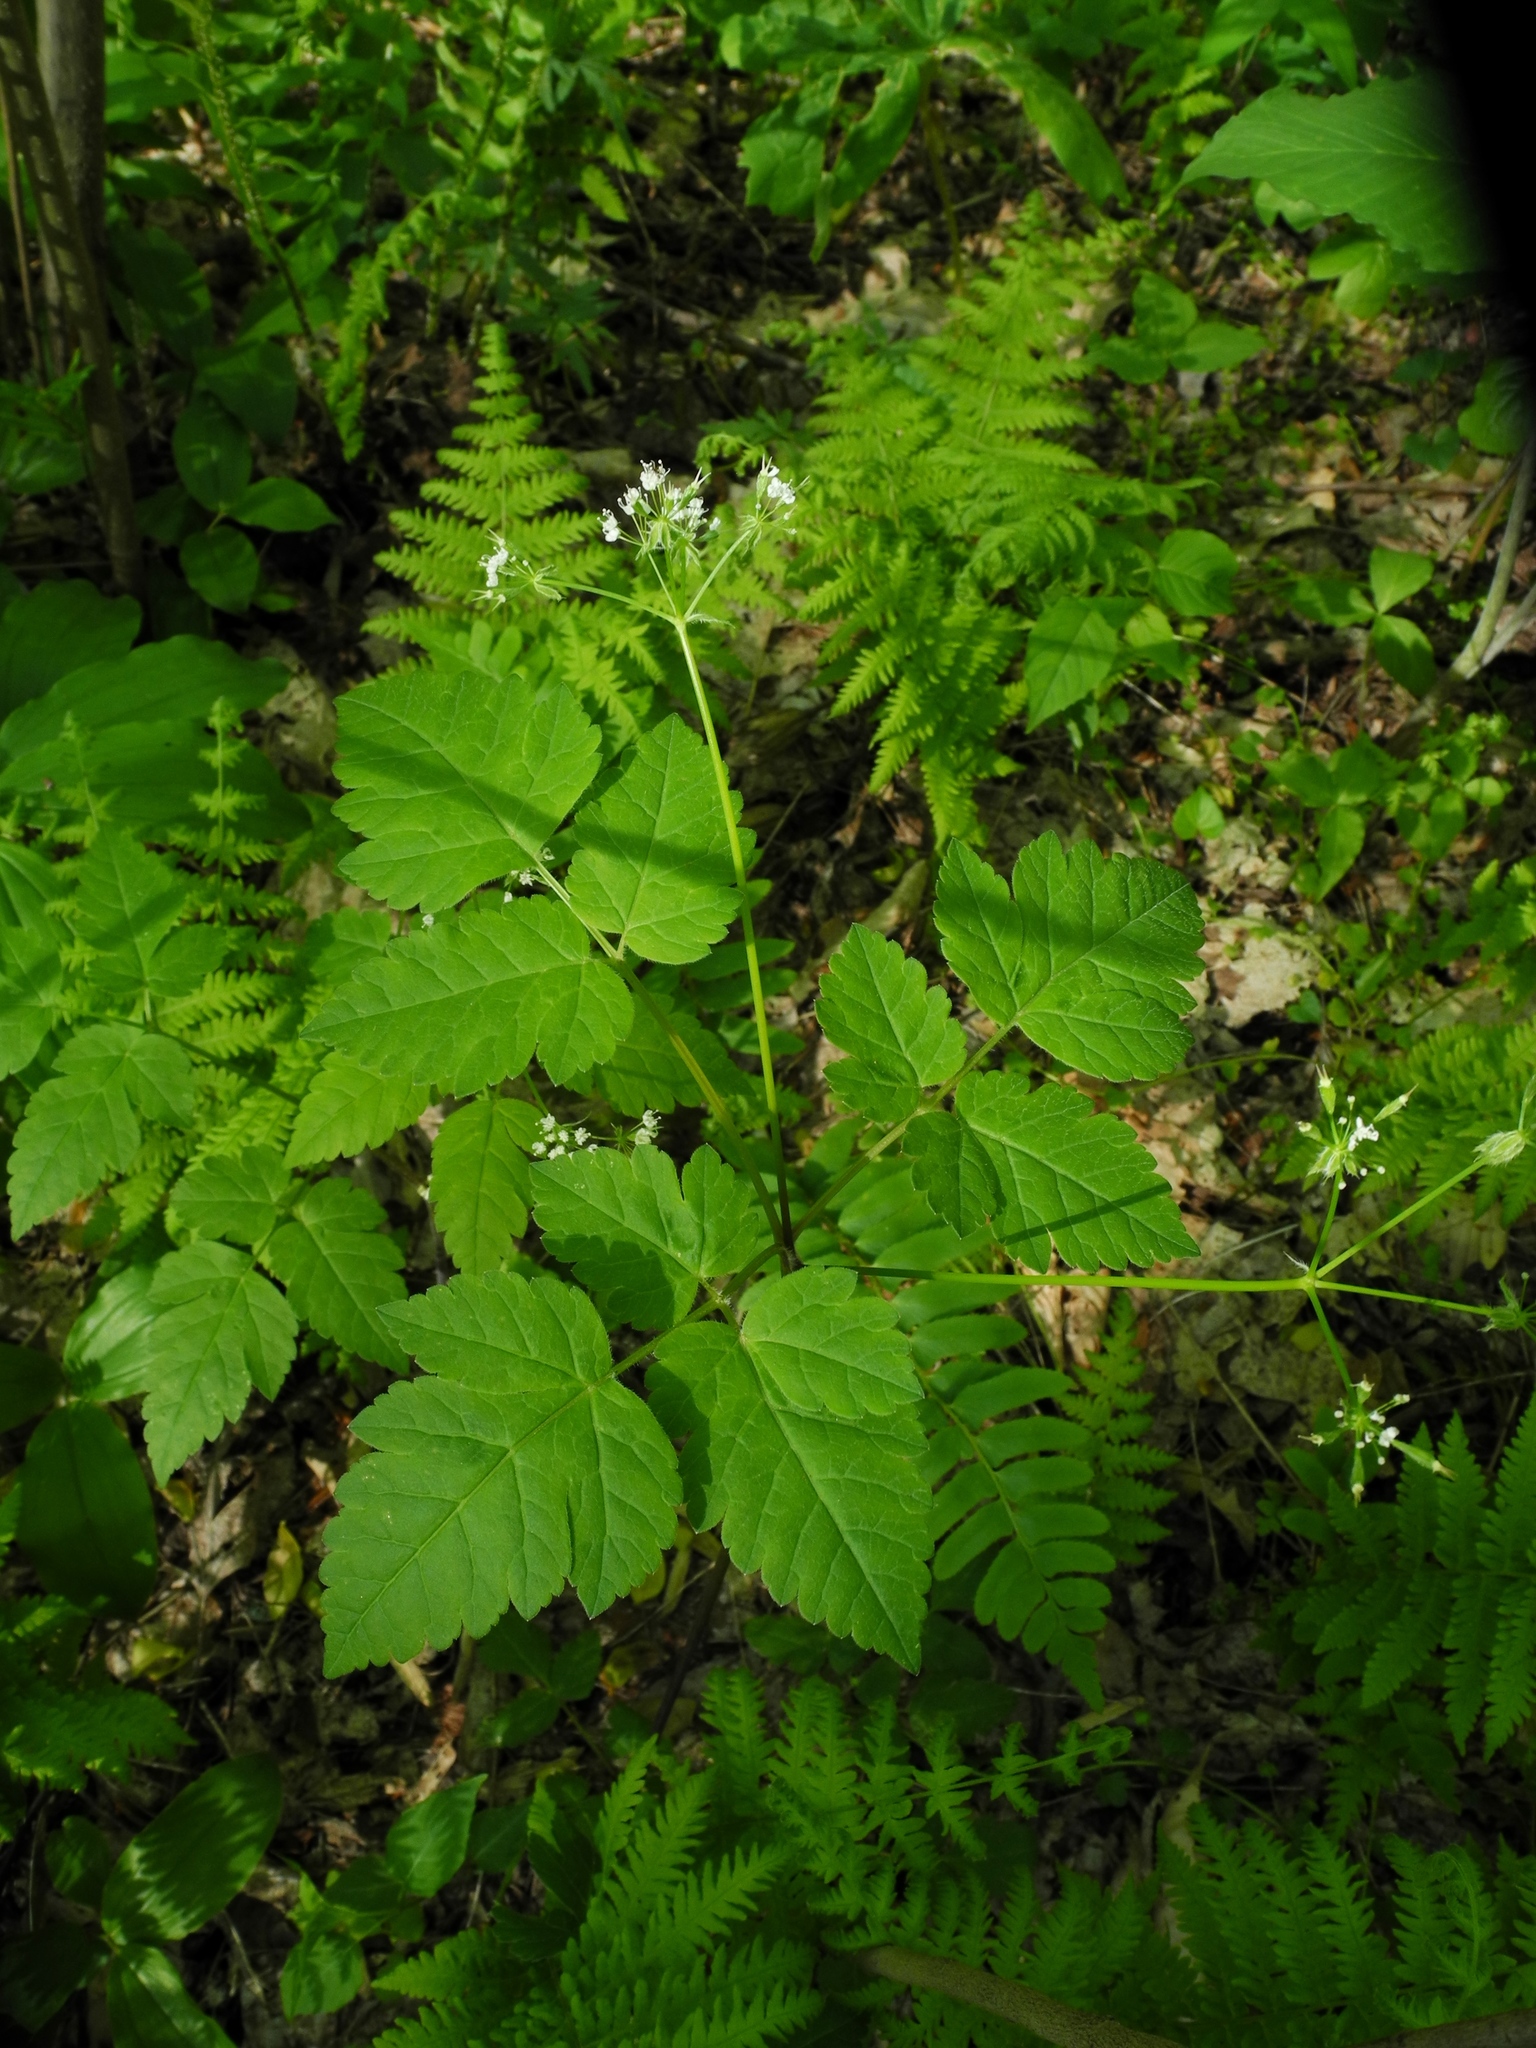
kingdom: Plantae
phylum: Tracheophyta
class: Magnoliopsida
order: Apiales
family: Apiaceae
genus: Osmorhiza
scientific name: Osmorhiza longistylis
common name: Smooth sweet cicely
